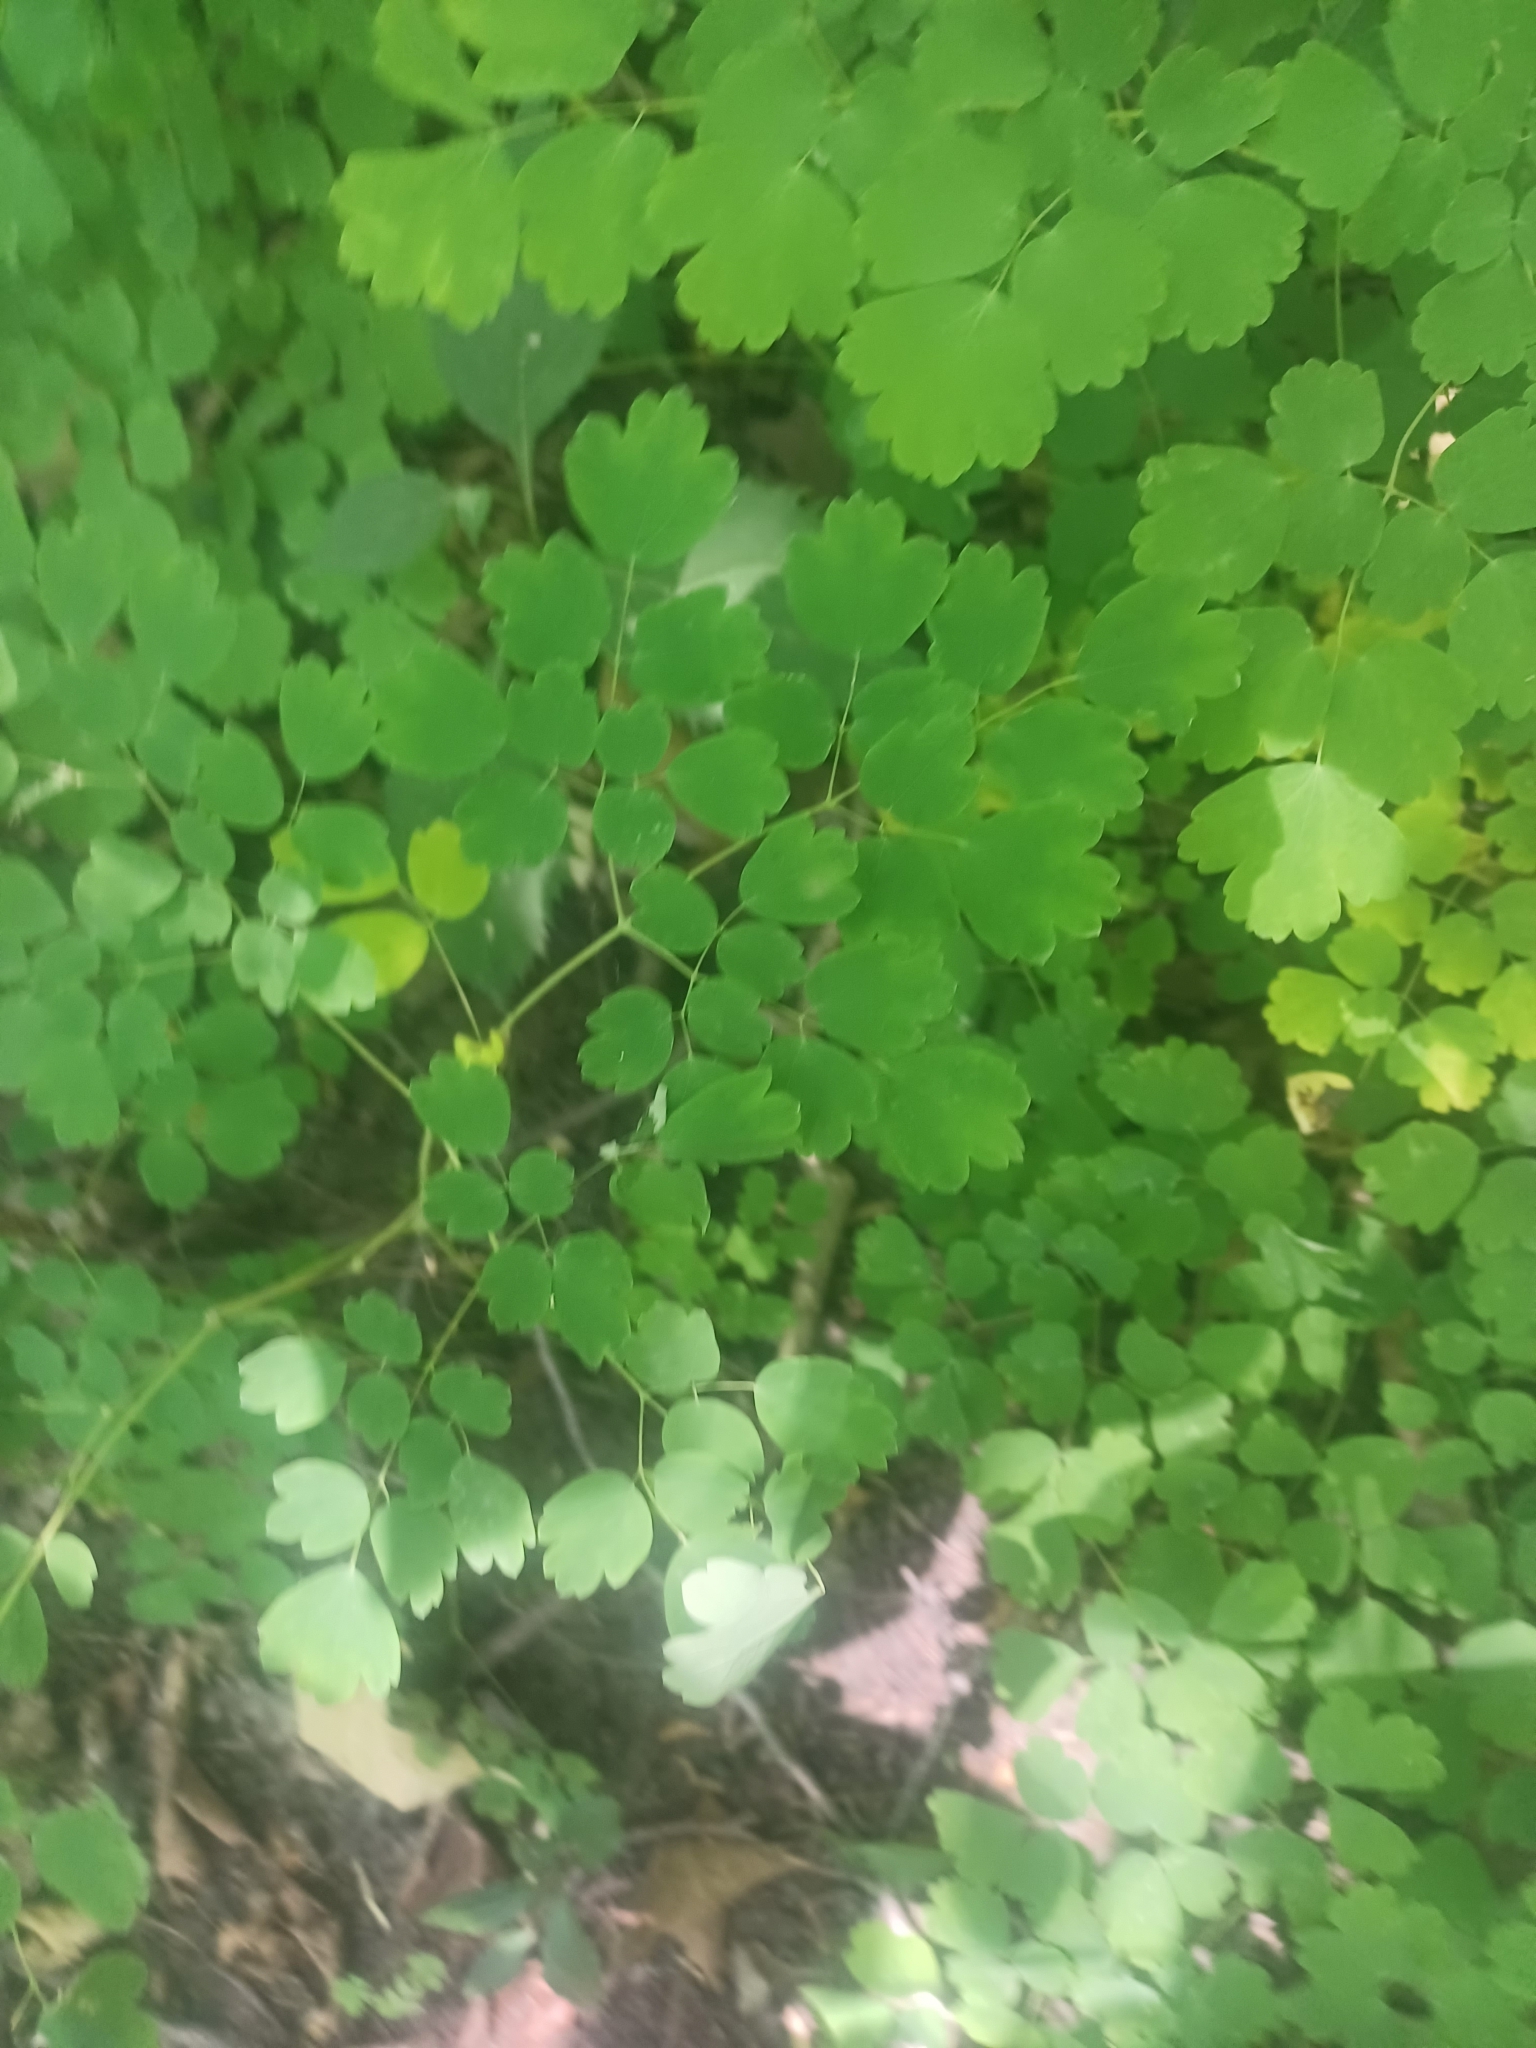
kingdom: Plantae
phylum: Tracheophyta
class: Magnoliopsida
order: Ranunculales
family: Ranunculaceae
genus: Thalictrum
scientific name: Thalictrum dioicum
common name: Early meadow-rue
